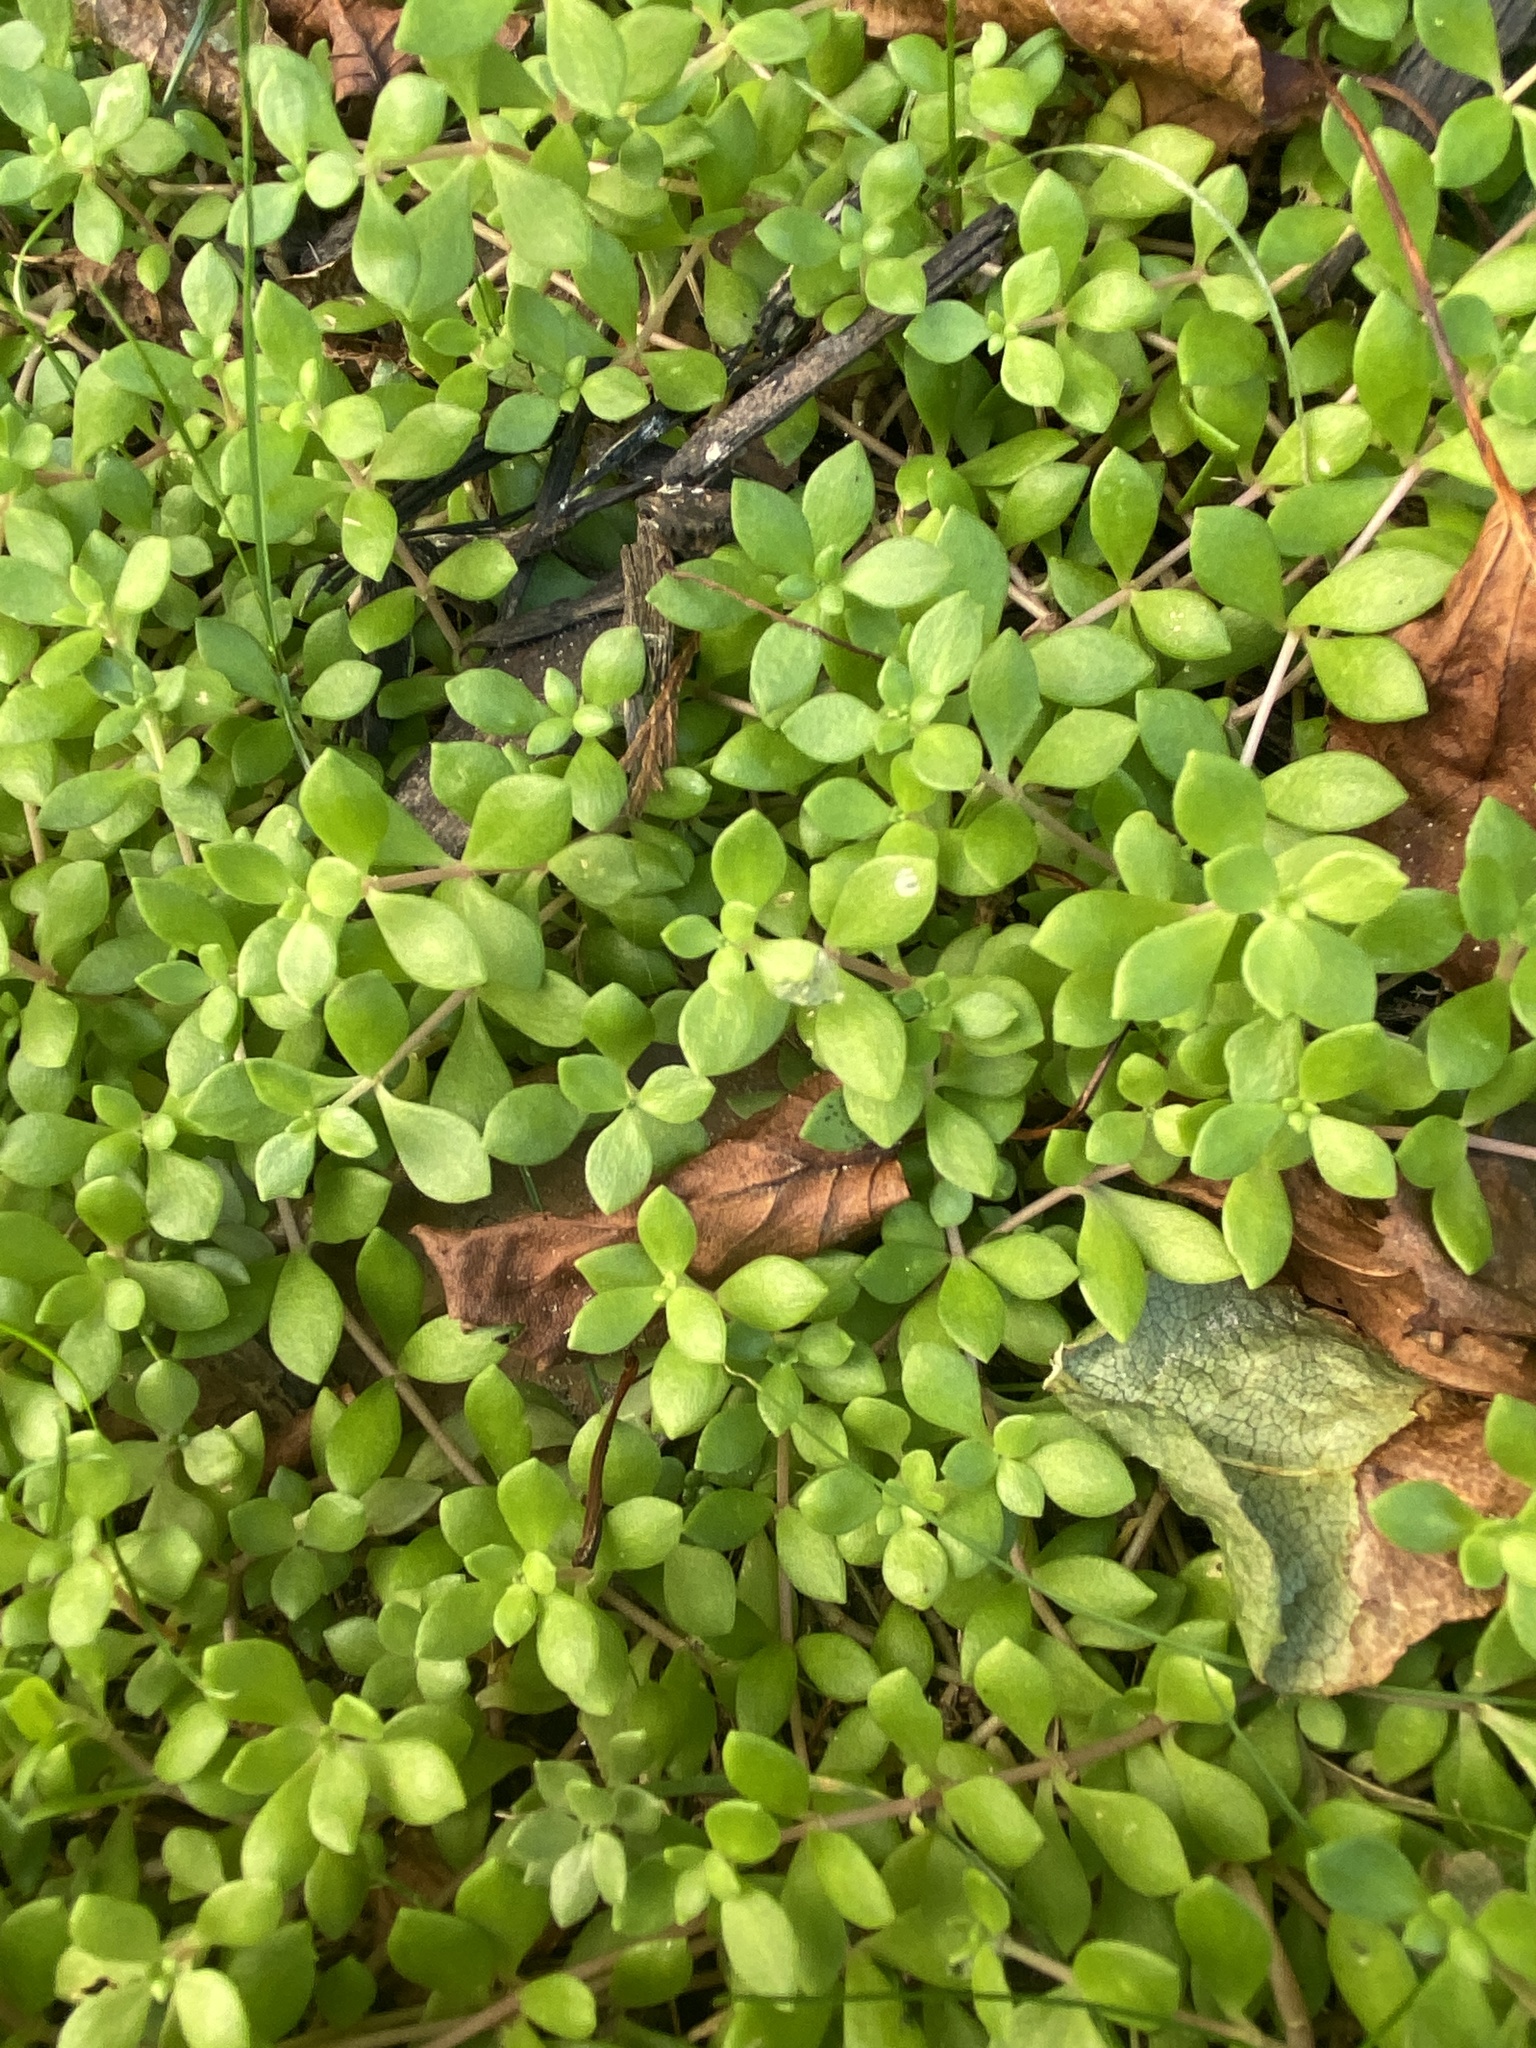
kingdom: Plantae
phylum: Tracheophyta
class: Magnoliopsida
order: Saxifragales
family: Crassulaceae
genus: Sedum
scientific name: Sedum sarmentosum
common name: Stringy stonecrop
